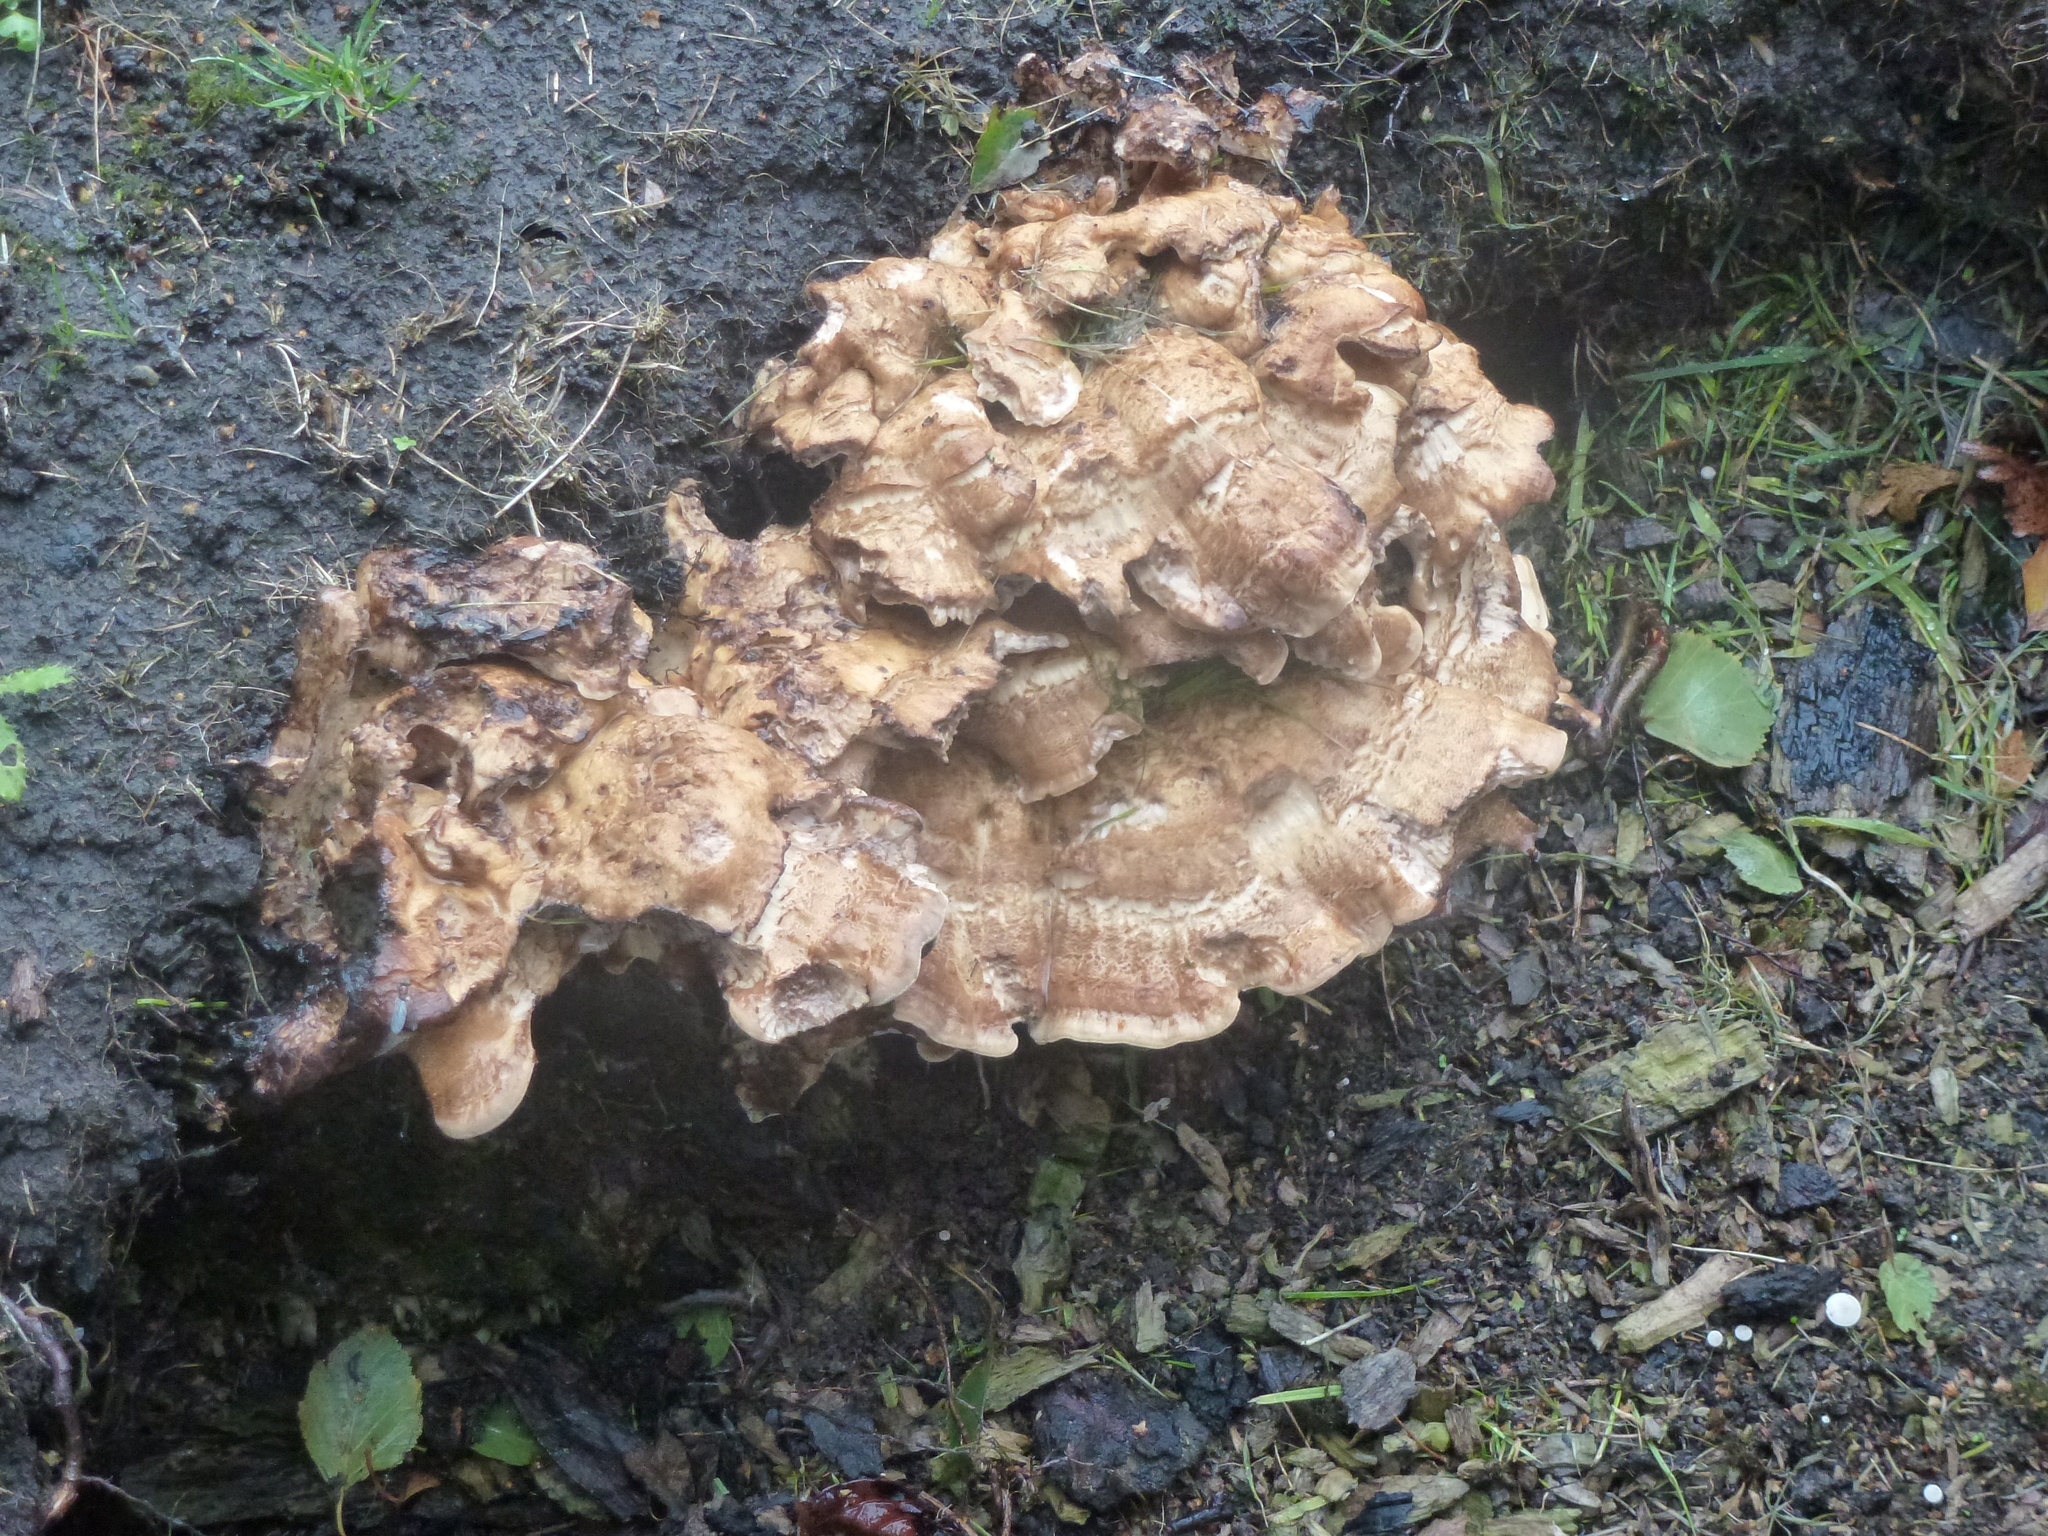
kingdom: Fungi
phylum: Basidiomycota
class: Agaricomycetes
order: Polyporales
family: Meripilaceae
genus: Meripilus
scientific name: Meripilus giganteus
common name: Giant polypore
